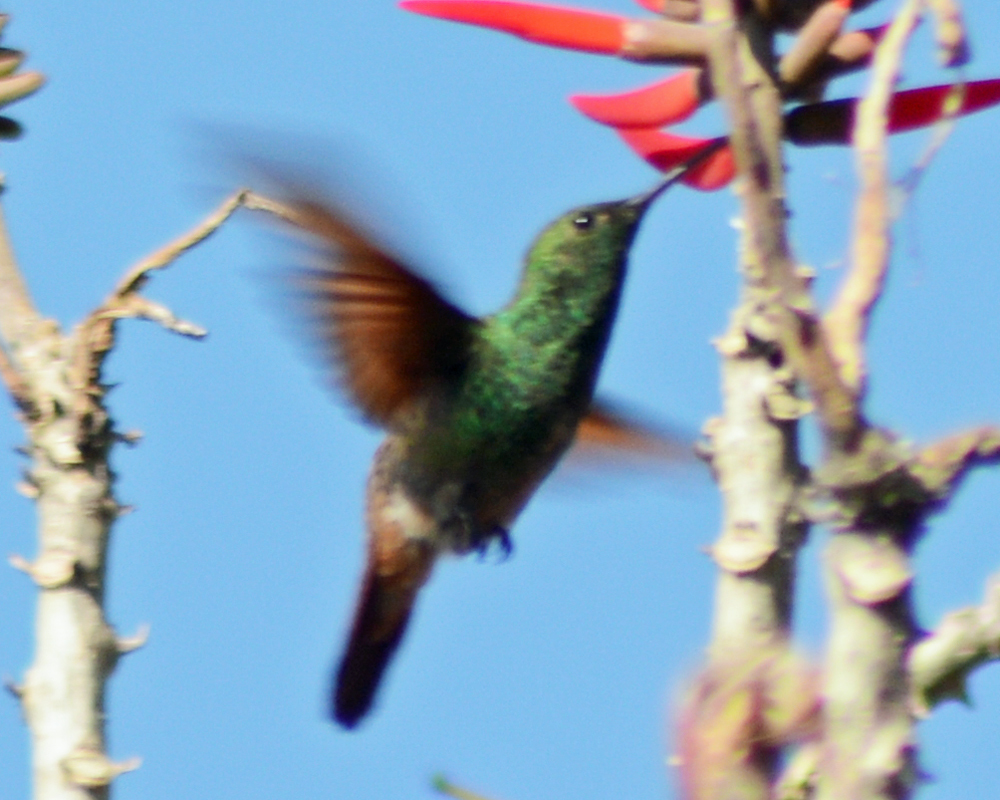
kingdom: Animalia
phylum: Chordata
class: Aves
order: Apodiformes
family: Trochilidae
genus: Saucerottia
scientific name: Saucerottia beryllina
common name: Berylline hummingbird
